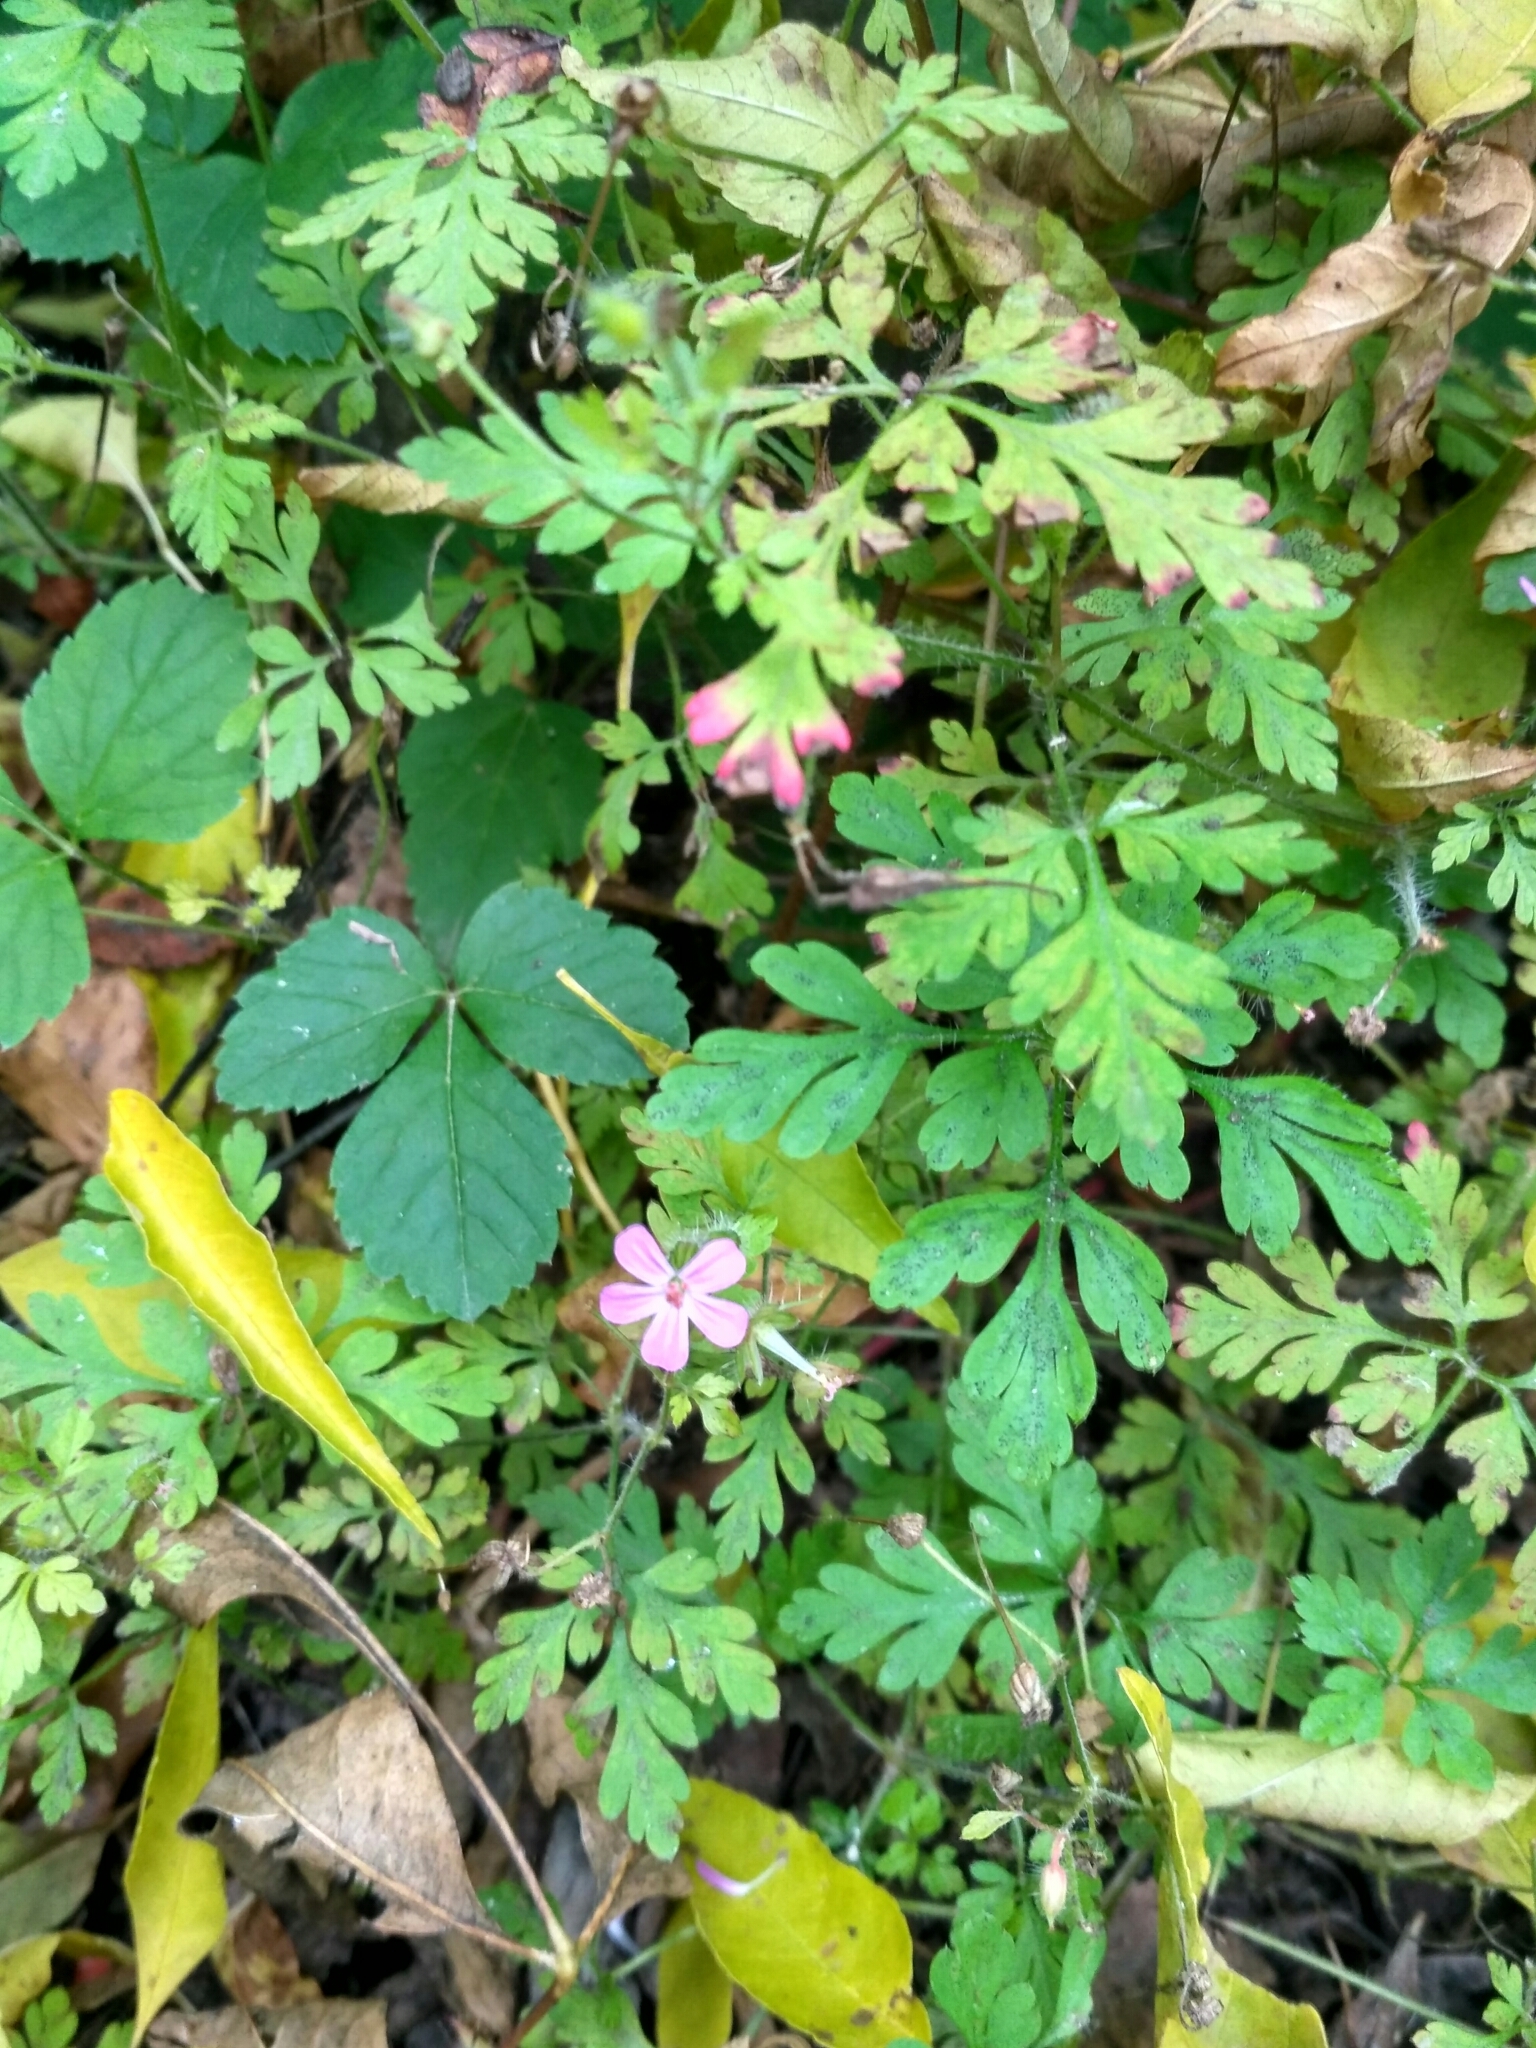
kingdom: Plantae
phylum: Tracheophyta
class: Magnoliopsida
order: Geraniales
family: Geraniaceae
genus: Geranium
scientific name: Geranium robertianum
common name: Herb-robert
